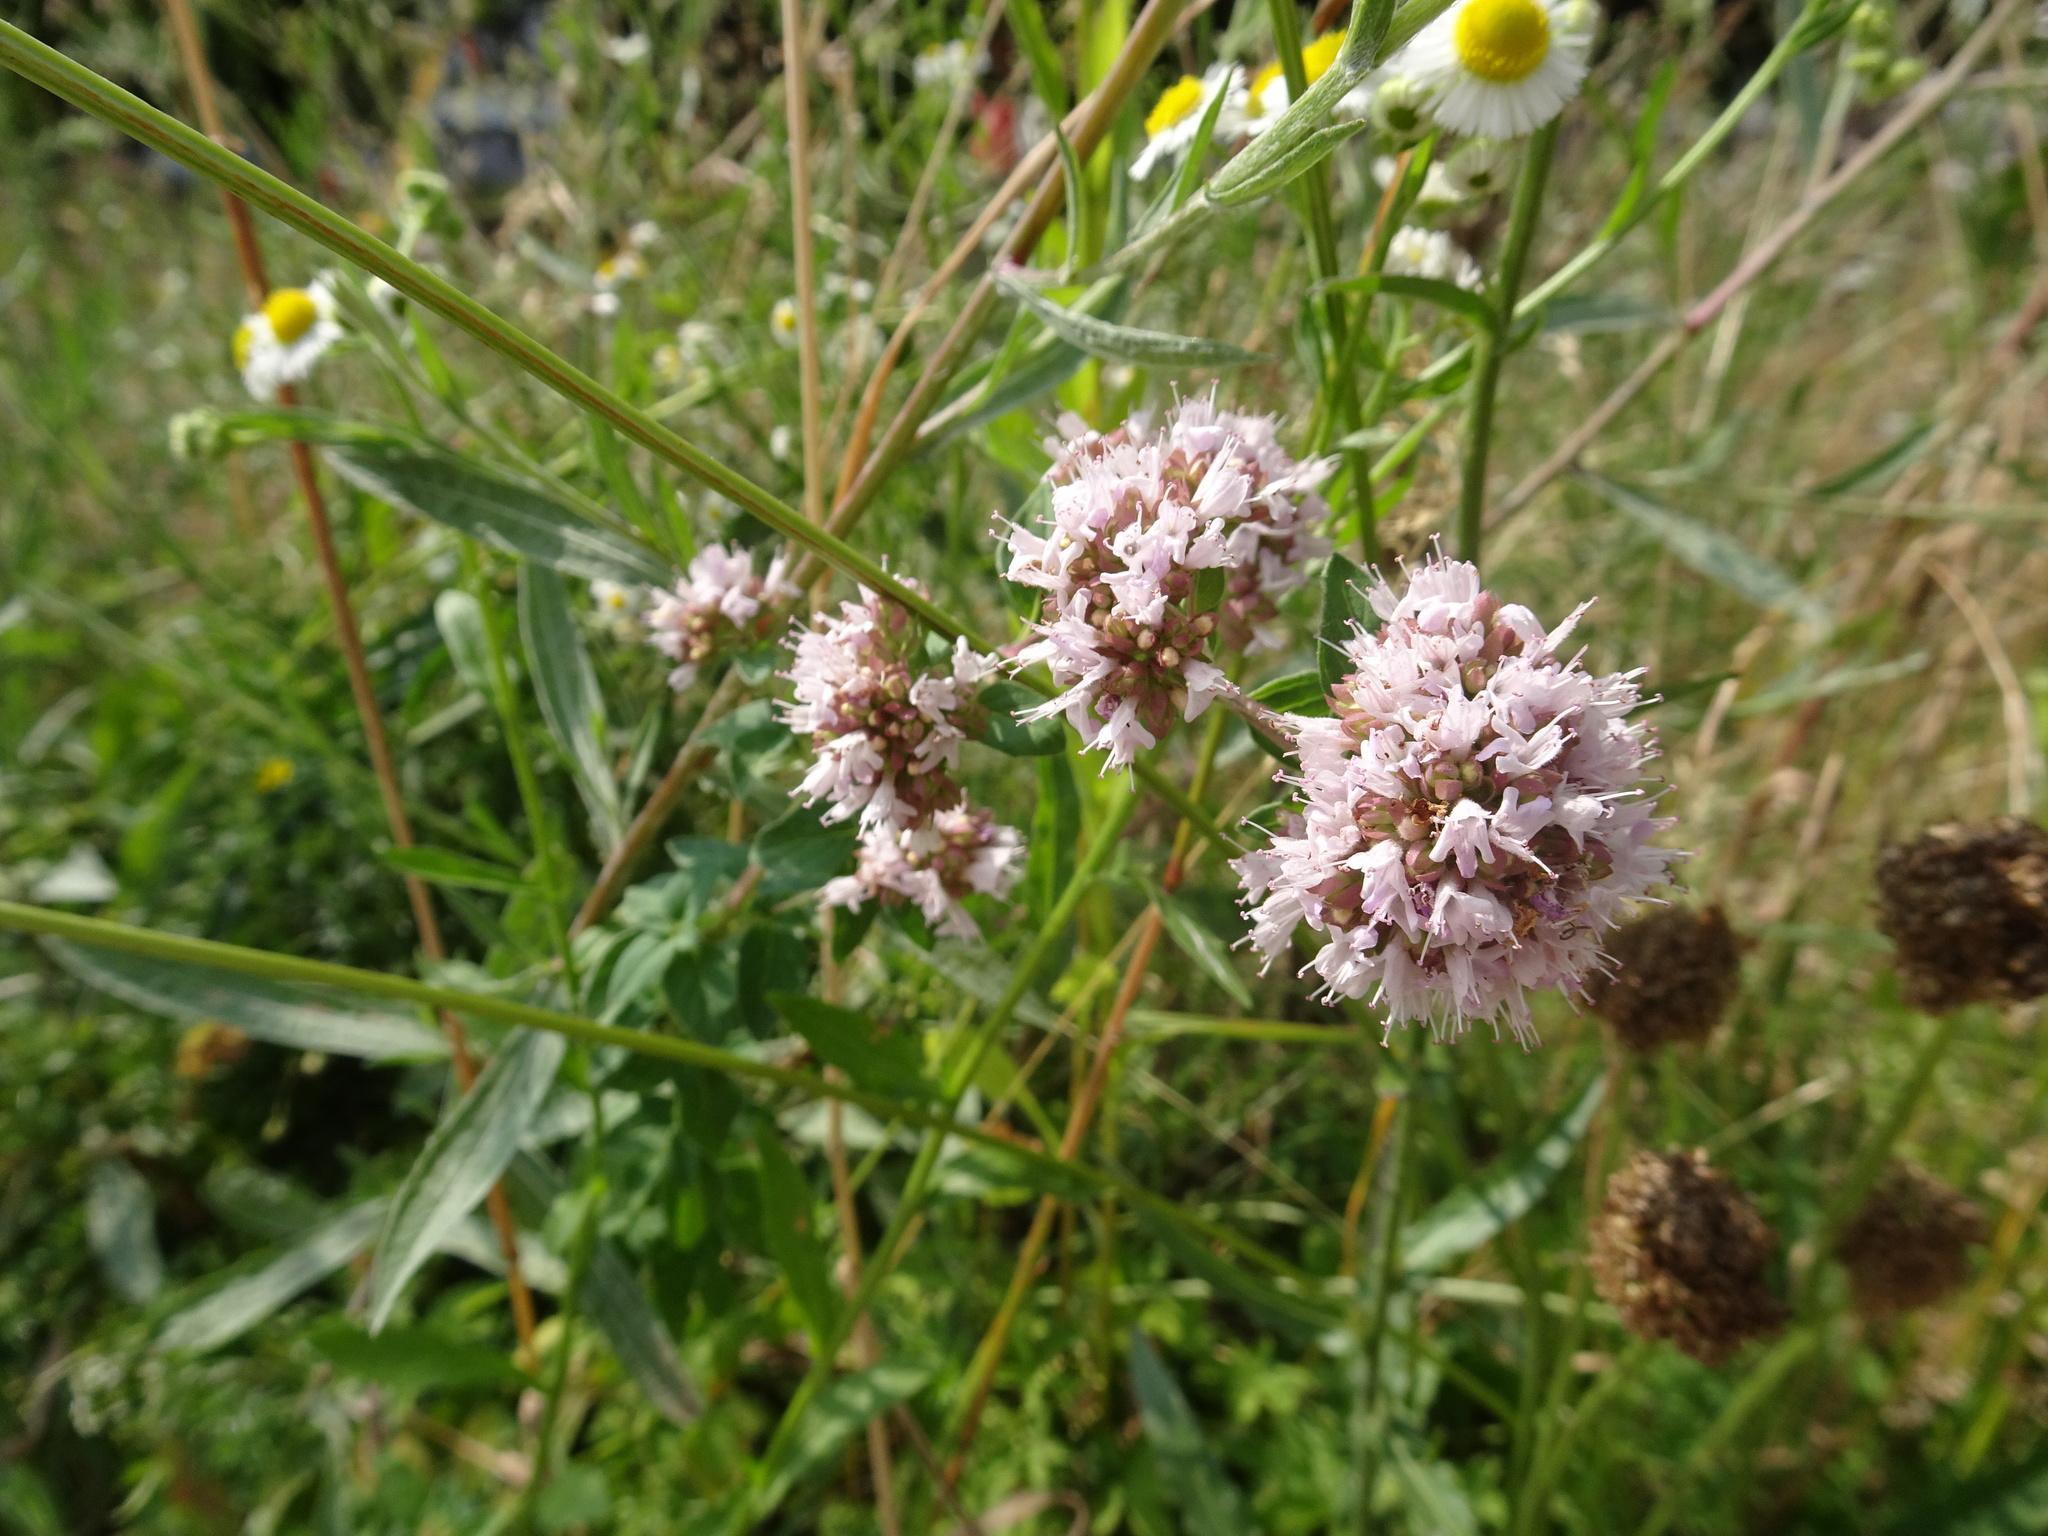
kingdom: Plantae
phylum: Tracheophyta
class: Magnoliopsida
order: Lamiales
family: Lamiaceae
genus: Origanum
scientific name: Origanum vulgare
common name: Wild marjoram
